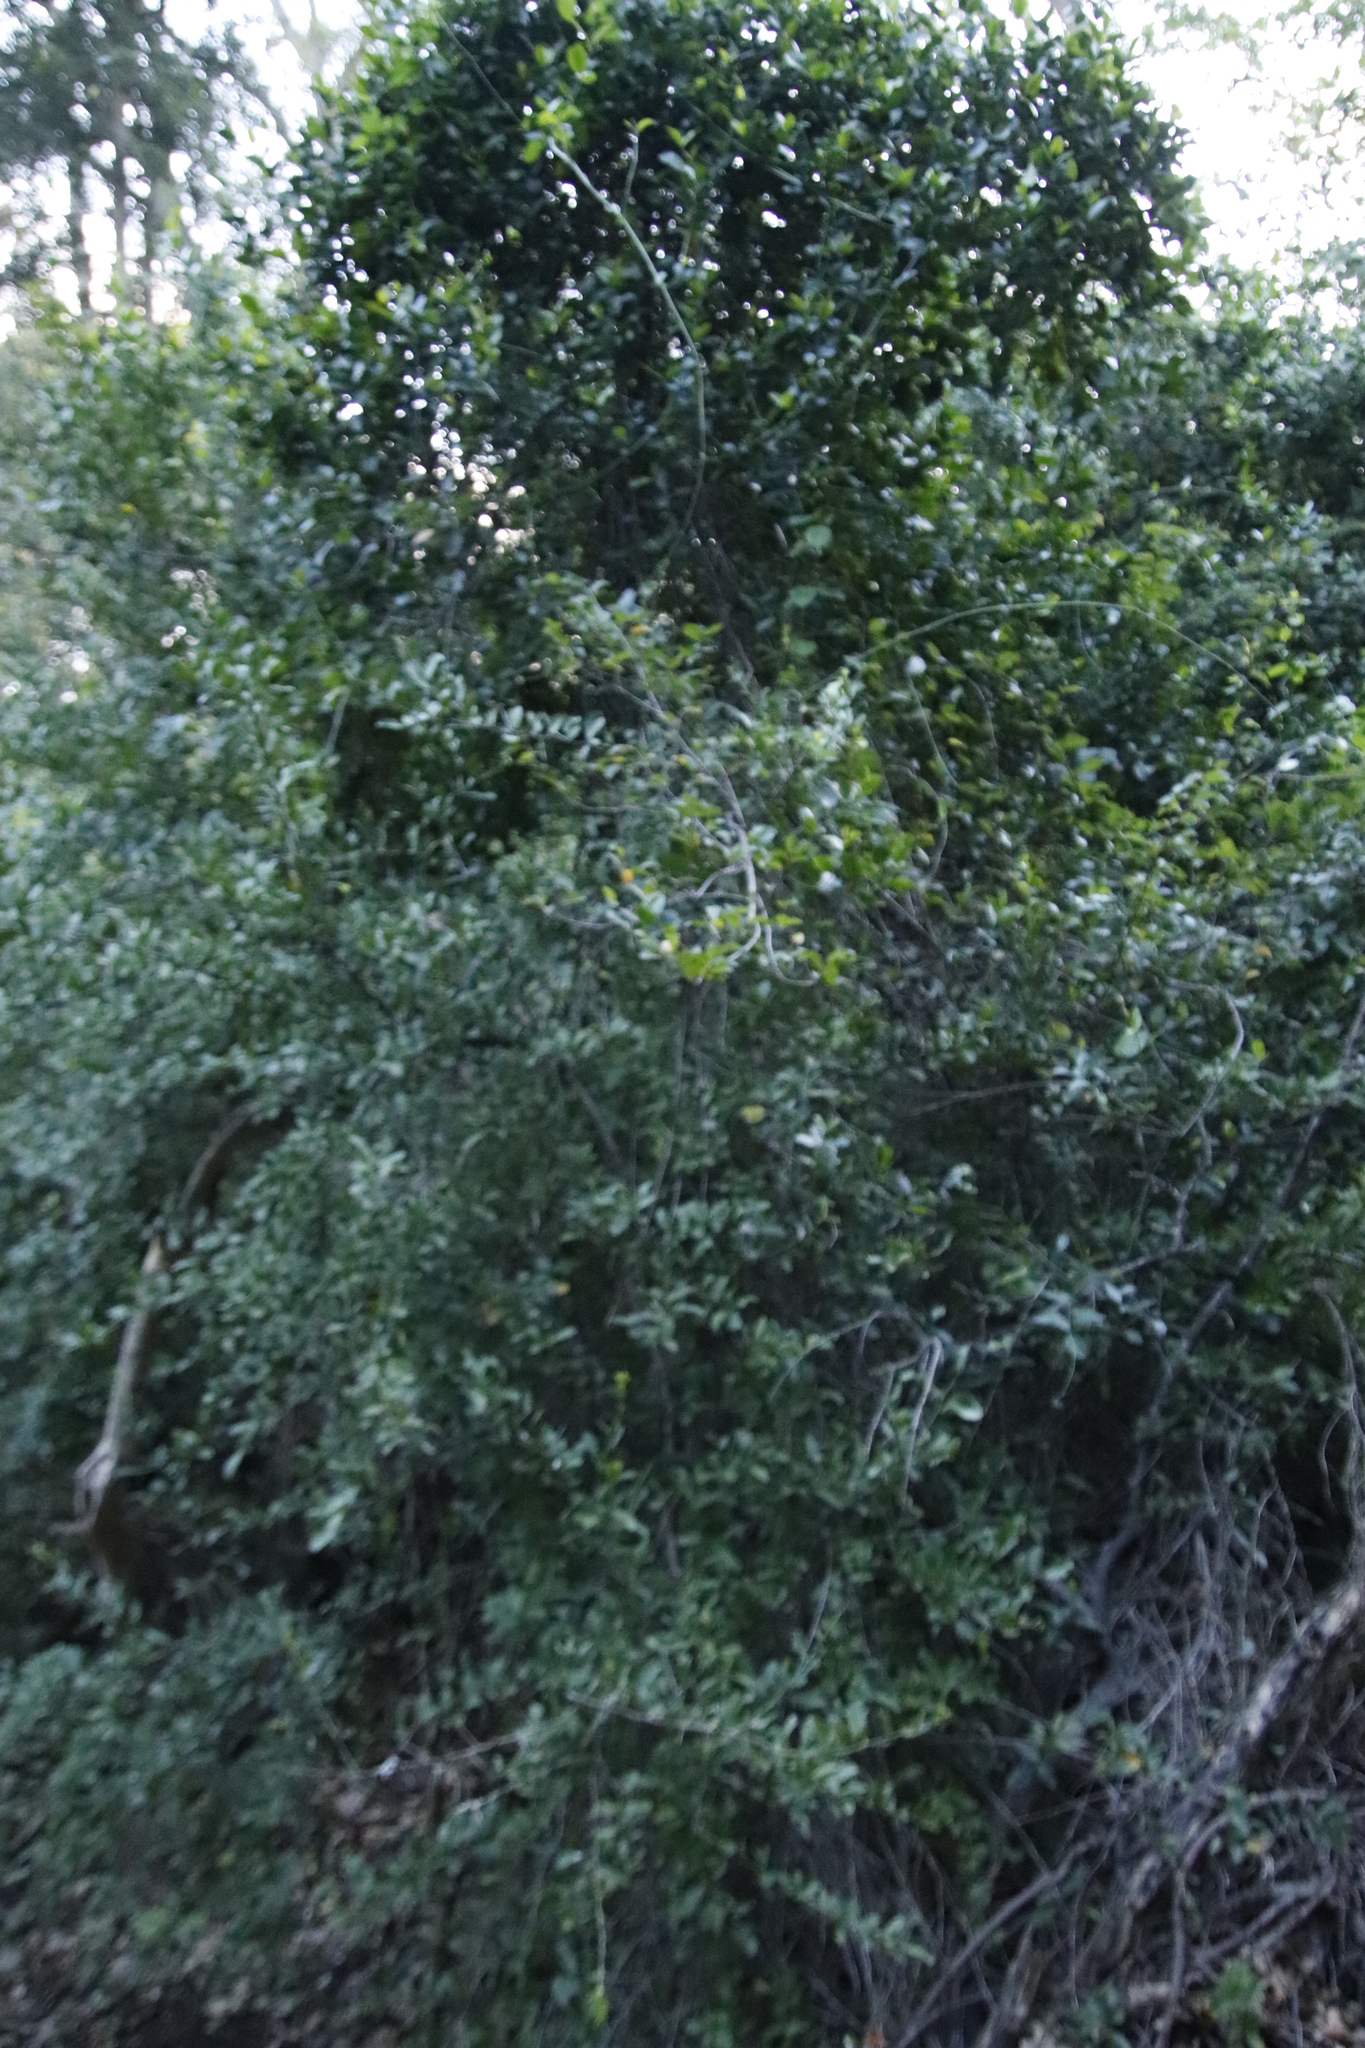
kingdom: Plantae
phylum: Tracheophyta
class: Magnoliopsida
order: Celastrales
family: Celastraceae
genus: Gymnosporia
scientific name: Gymnosporia buxifolia
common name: Common spike-thorn
